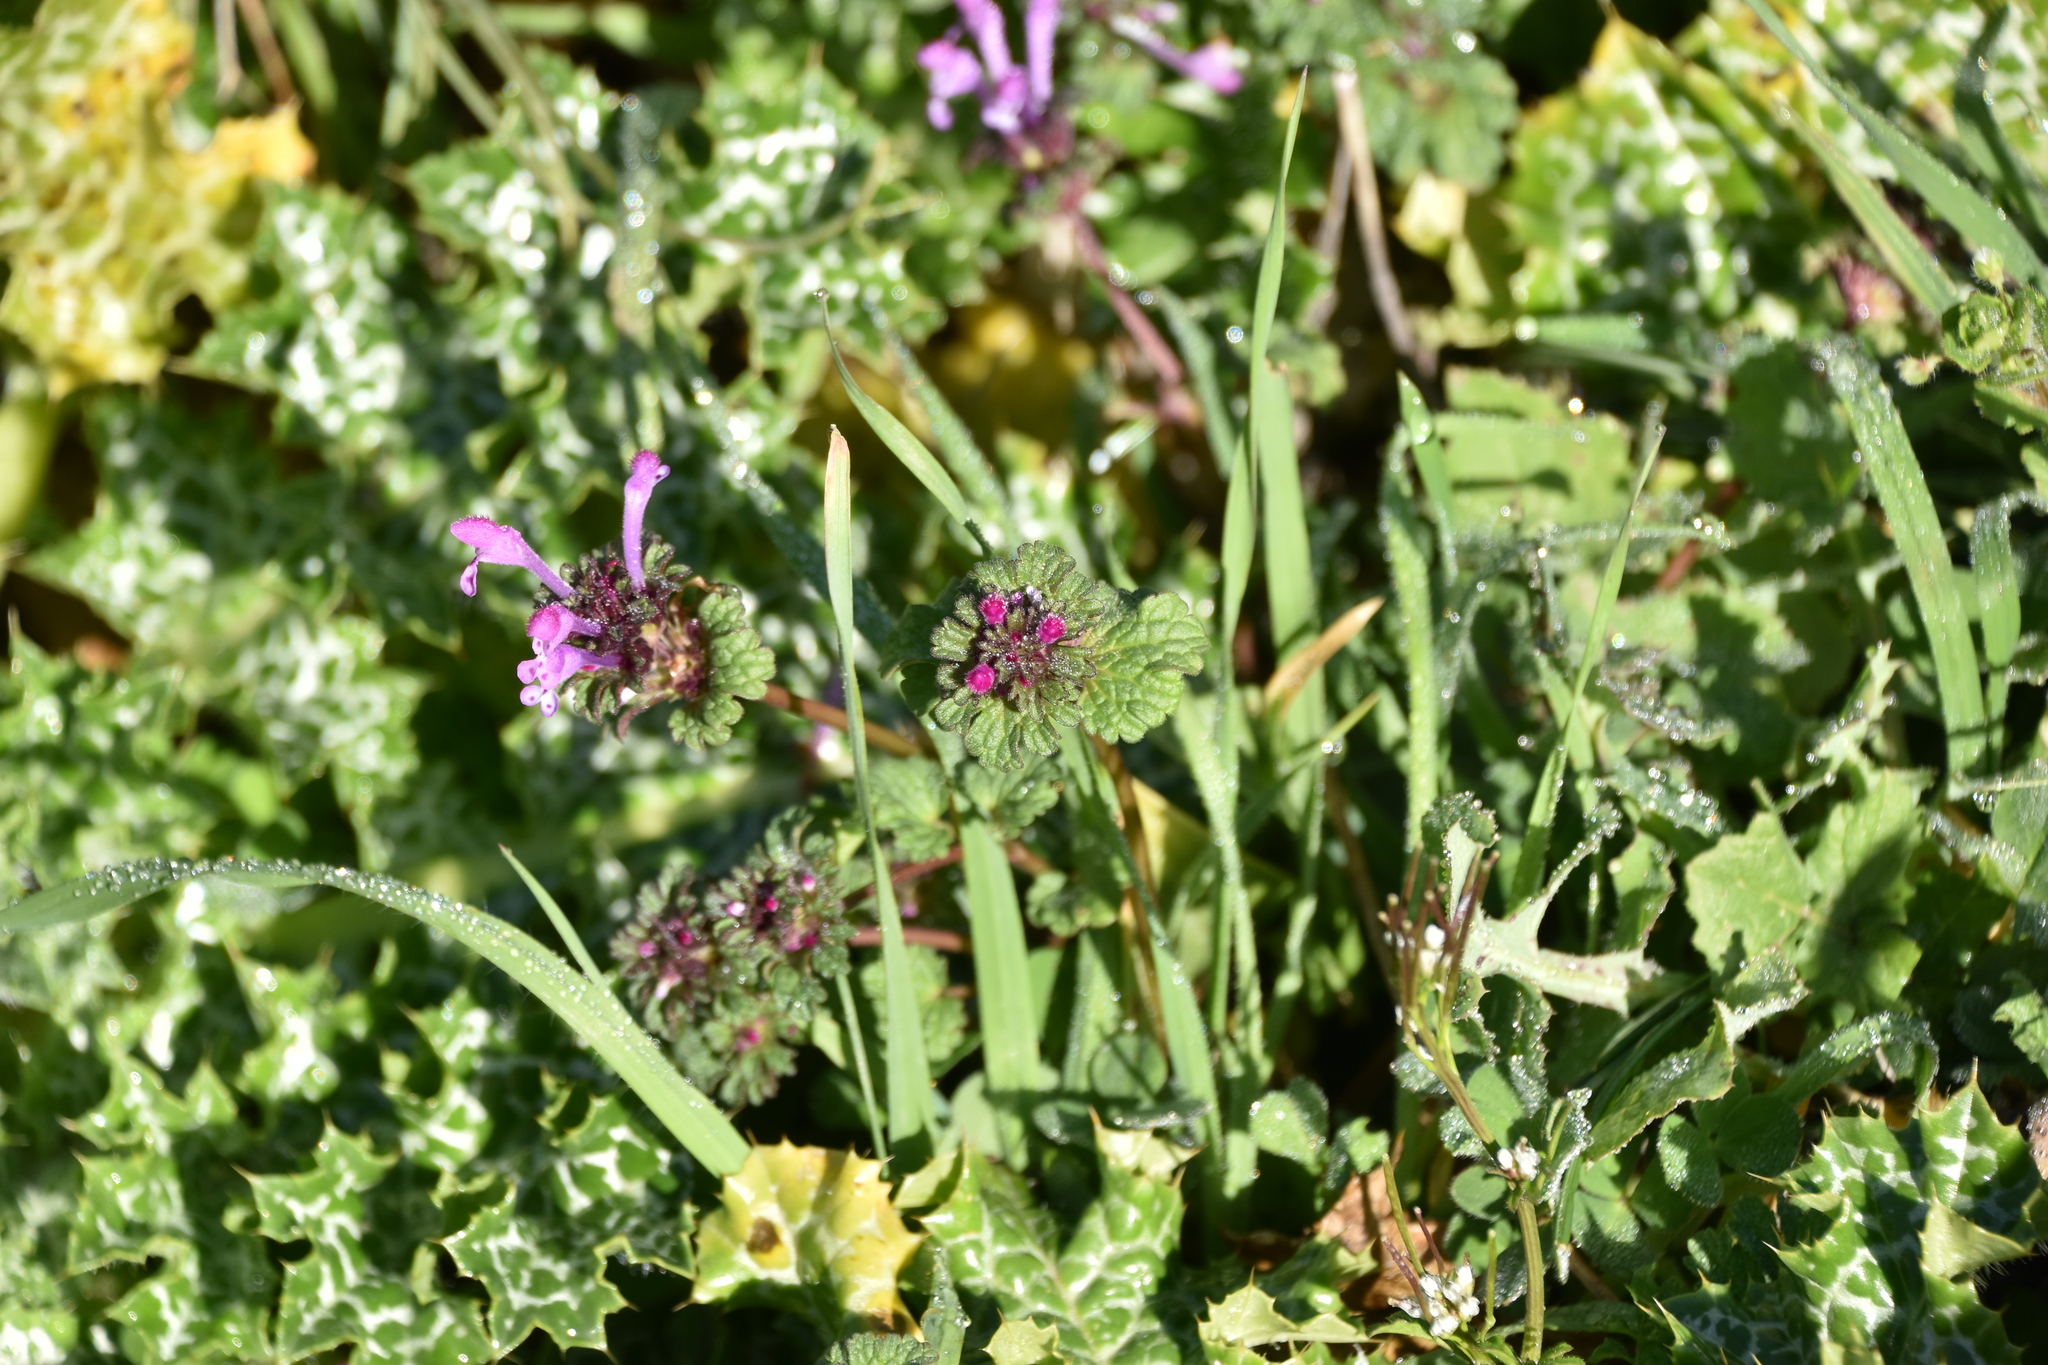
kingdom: Plantae
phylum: Tracheophyta
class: Magnoliopsida
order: Lamiales
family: Lamiaceae
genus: Lamium
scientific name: Lamium amplexicaule
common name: Henbit dead-nettle
